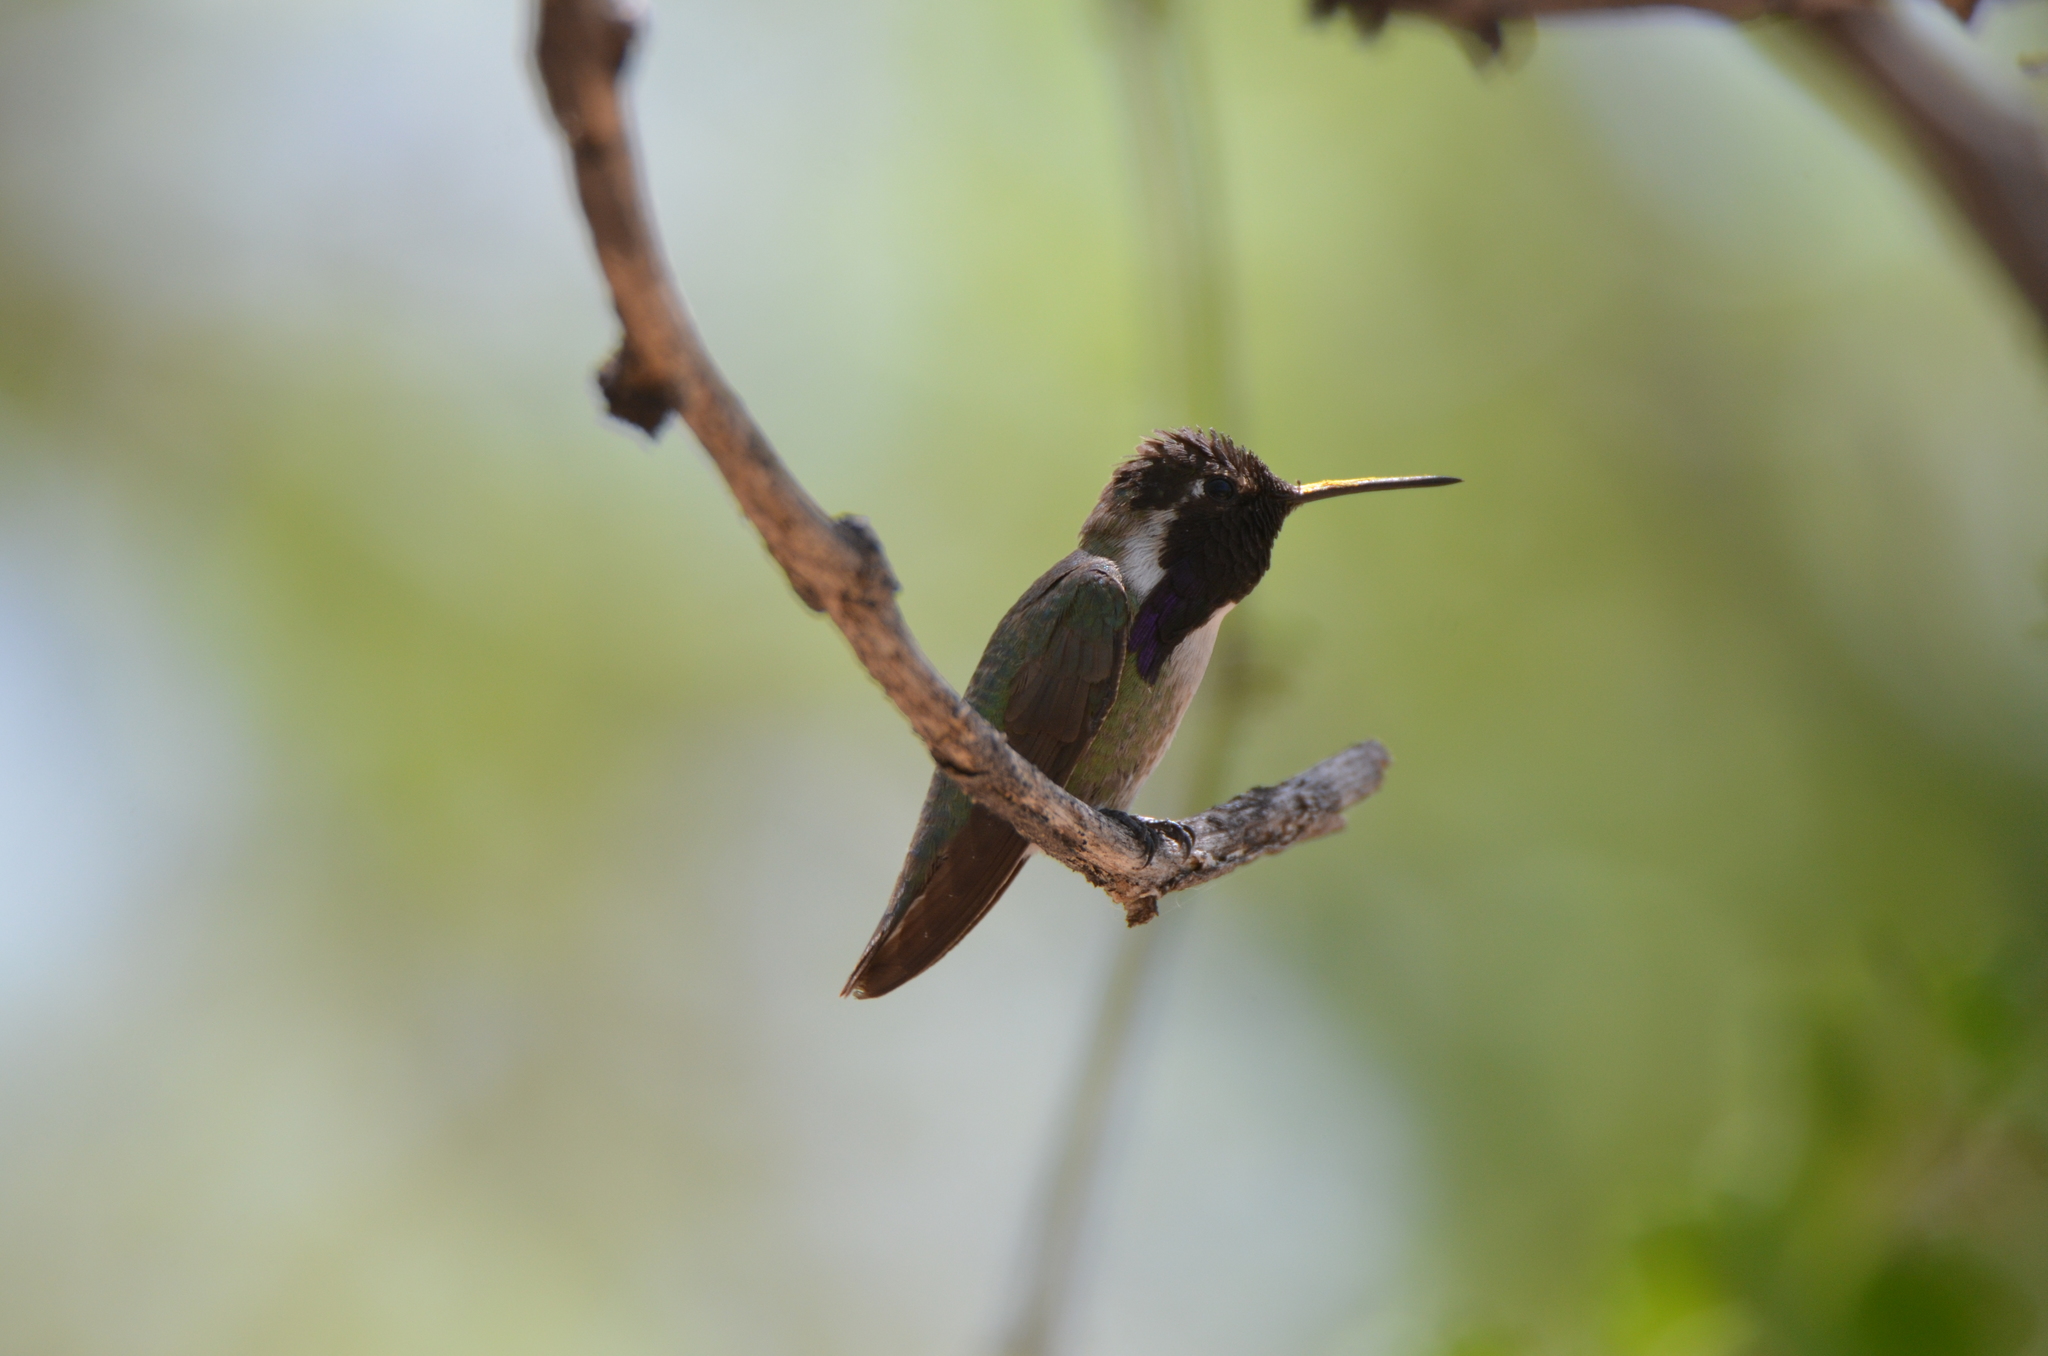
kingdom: Animalia
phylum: Chordata
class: Aves
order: Apodiformes
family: Trochilidae
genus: Calypte
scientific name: Calypte costae
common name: Costa's hummingbird
